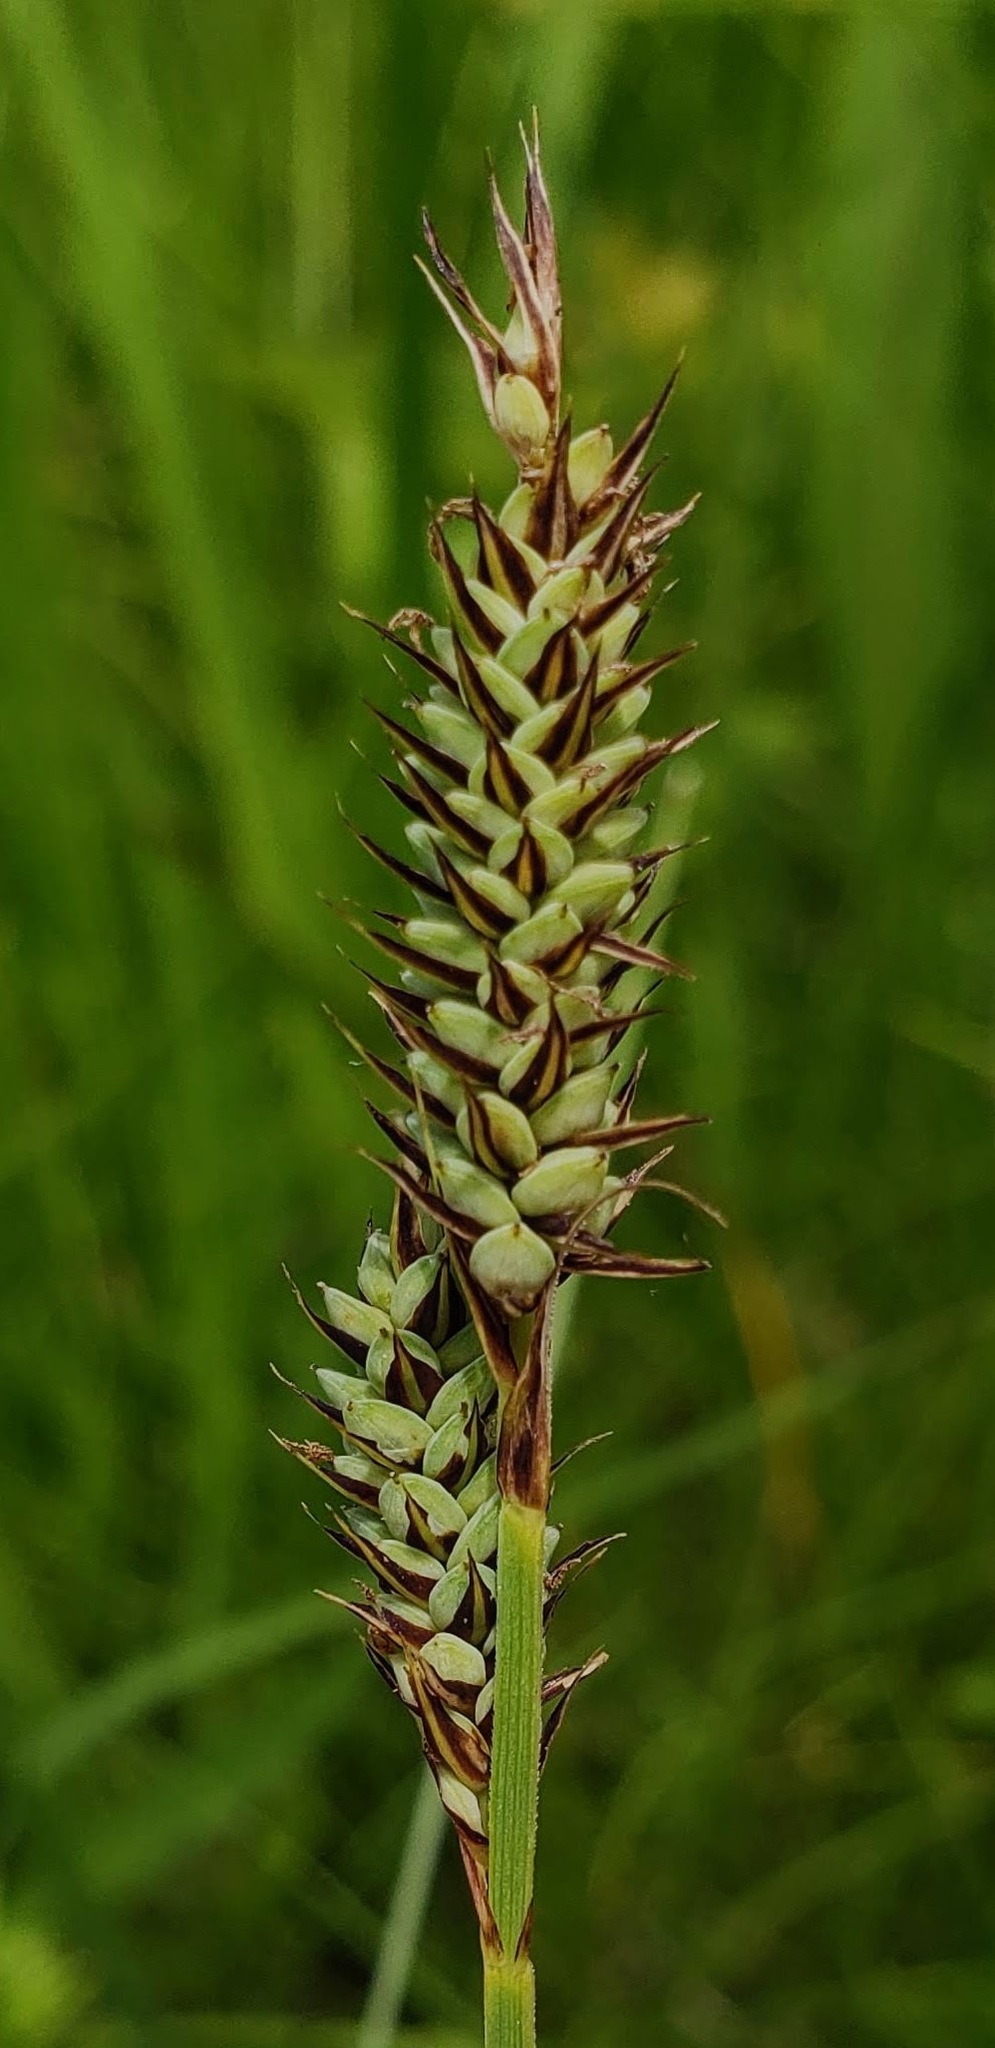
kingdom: Plantae
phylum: Tracheophyta
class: Liliopsida
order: Poales
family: Cyperaceae
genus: Carex
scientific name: Carex buxbaumii
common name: Club sedge
